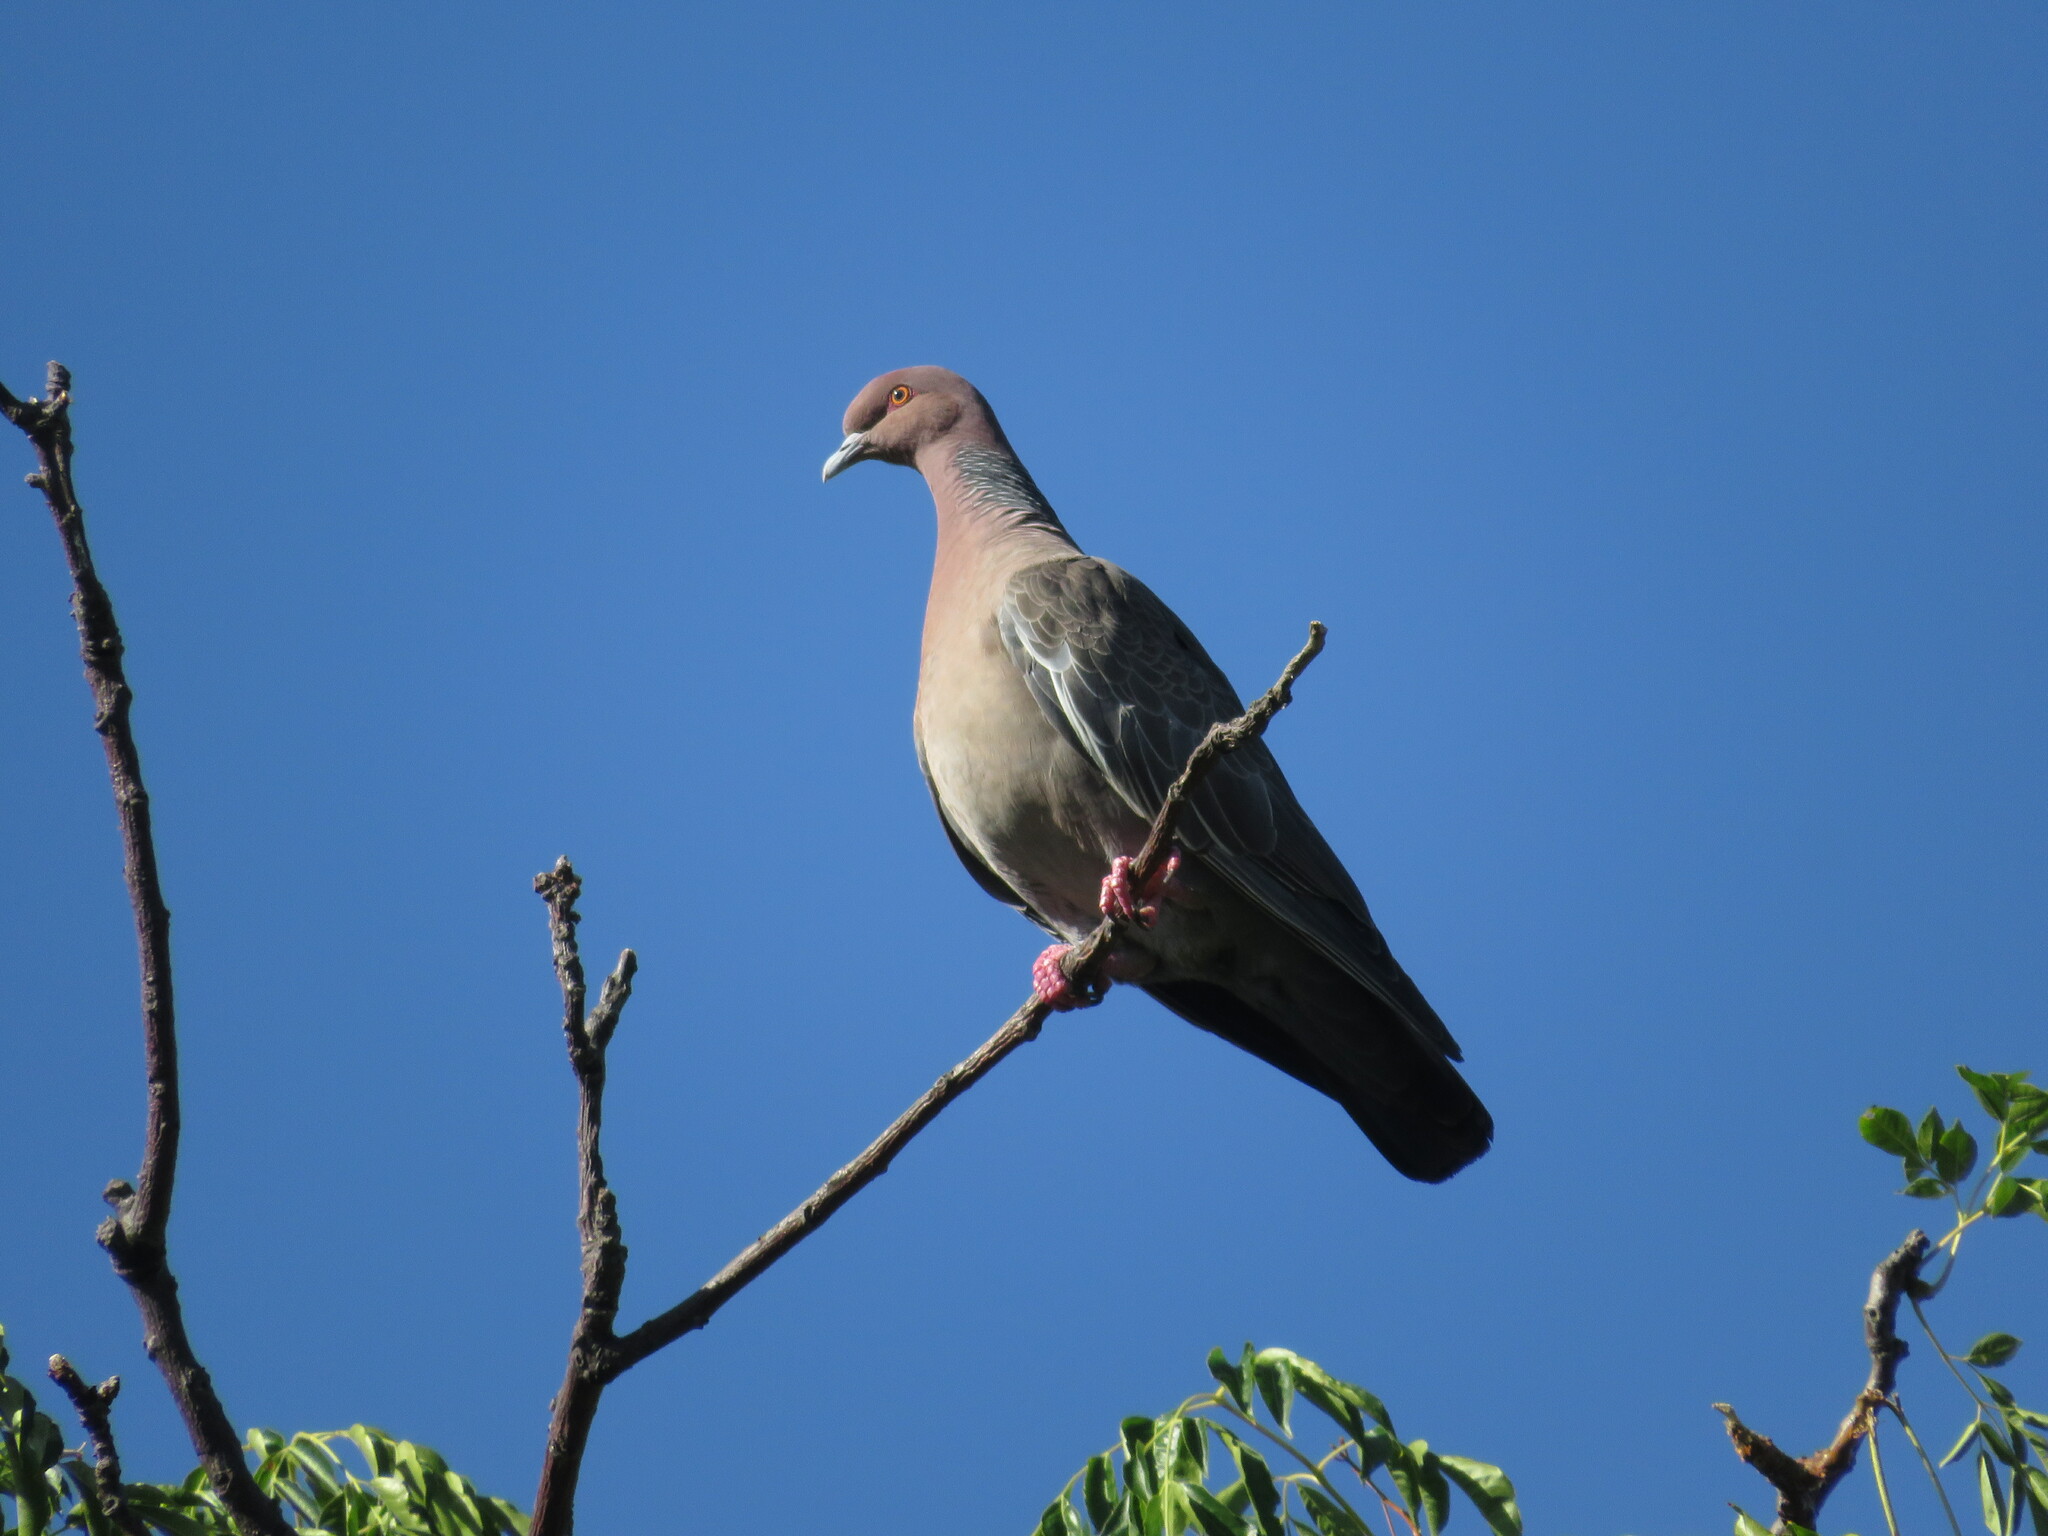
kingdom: Animalia
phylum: Chordata
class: Aves
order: Columbiformes
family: Columbidae
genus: Patagioenas
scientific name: Patagioenas picazuro
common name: Picazuro pigeon
